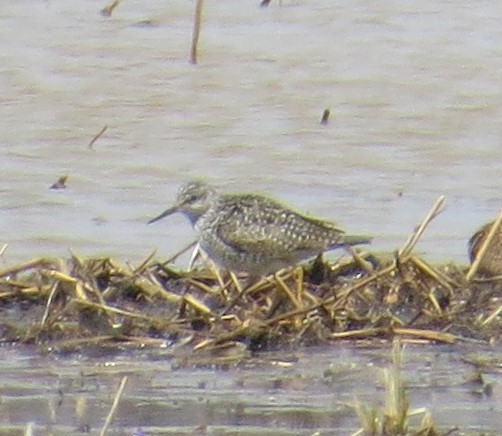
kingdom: Animalia
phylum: Chordata
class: Aves
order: Charadriiformes
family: Scolopacidae
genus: Tringa
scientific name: Tringa flavipes
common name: Lesser yellowlegs
